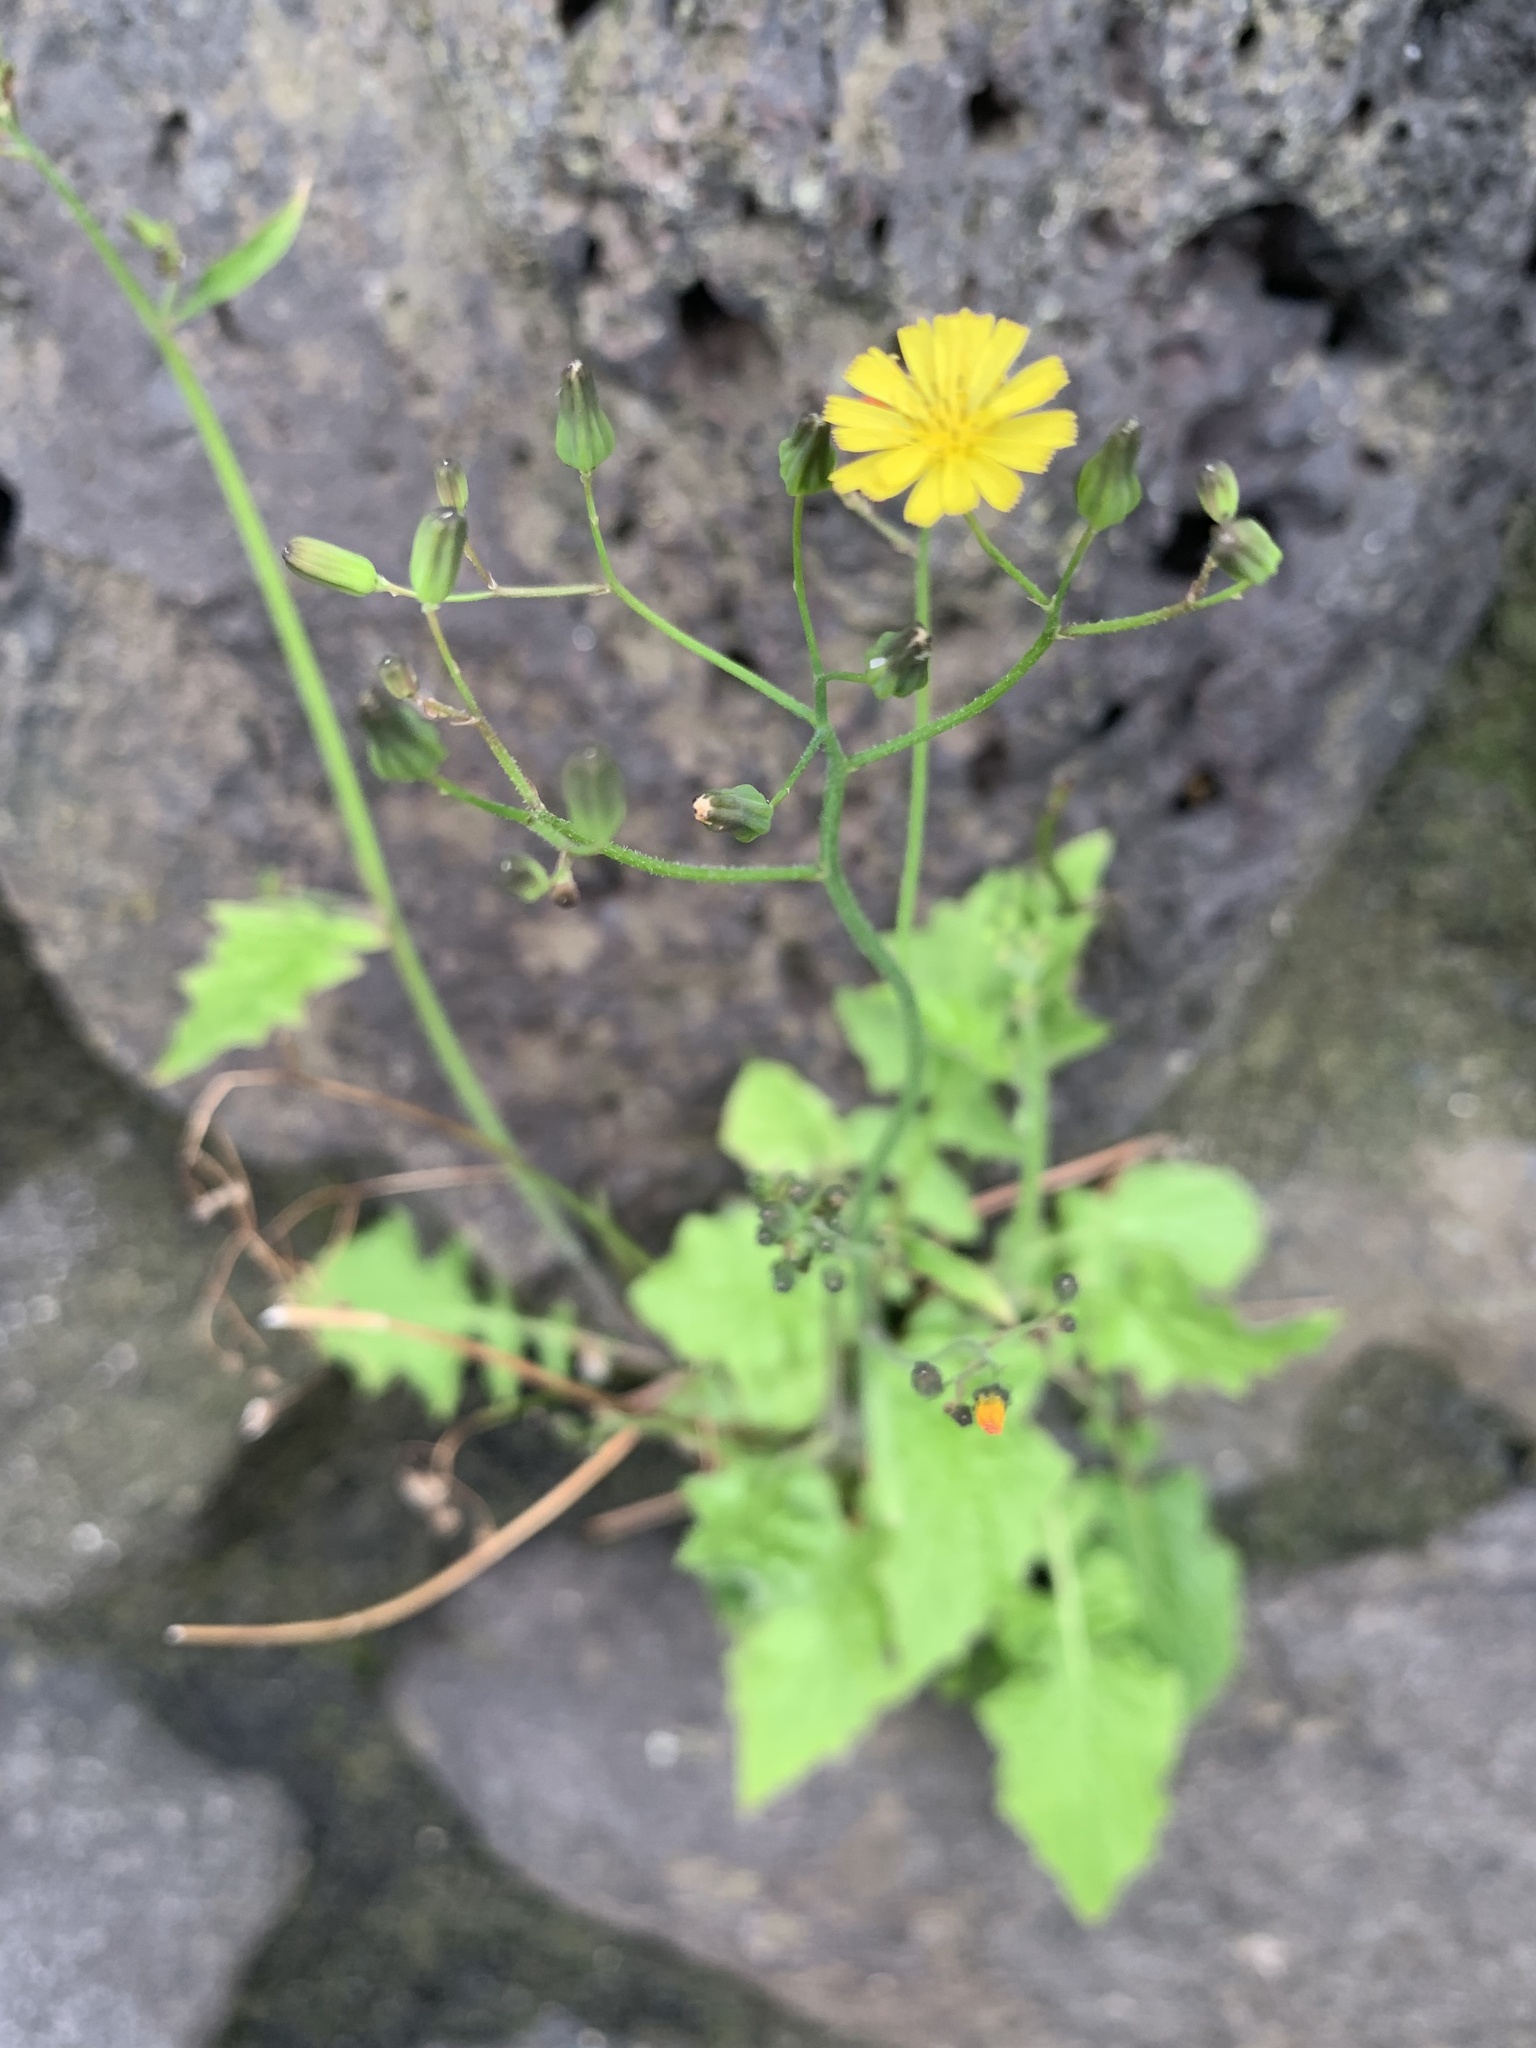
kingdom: Plantae
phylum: Tracheophyta
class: Magnoliopsida
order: Asterales
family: Asteraceae
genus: Youngia
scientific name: Youngia japonica
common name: Oriental false hawksbeard
